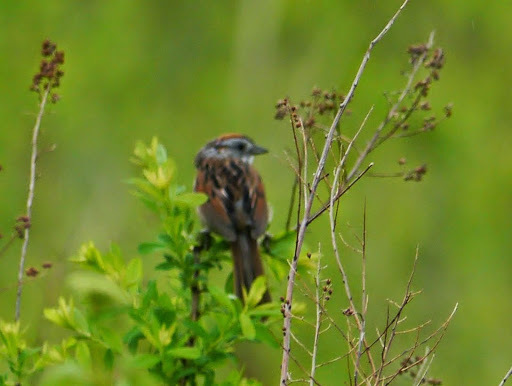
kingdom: Animalia
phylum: Chordata
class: Aves
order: Passeriformes
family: Passerellidae
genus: Melospiza
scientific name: Melospiza georgiana
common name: Swamp sparrow
